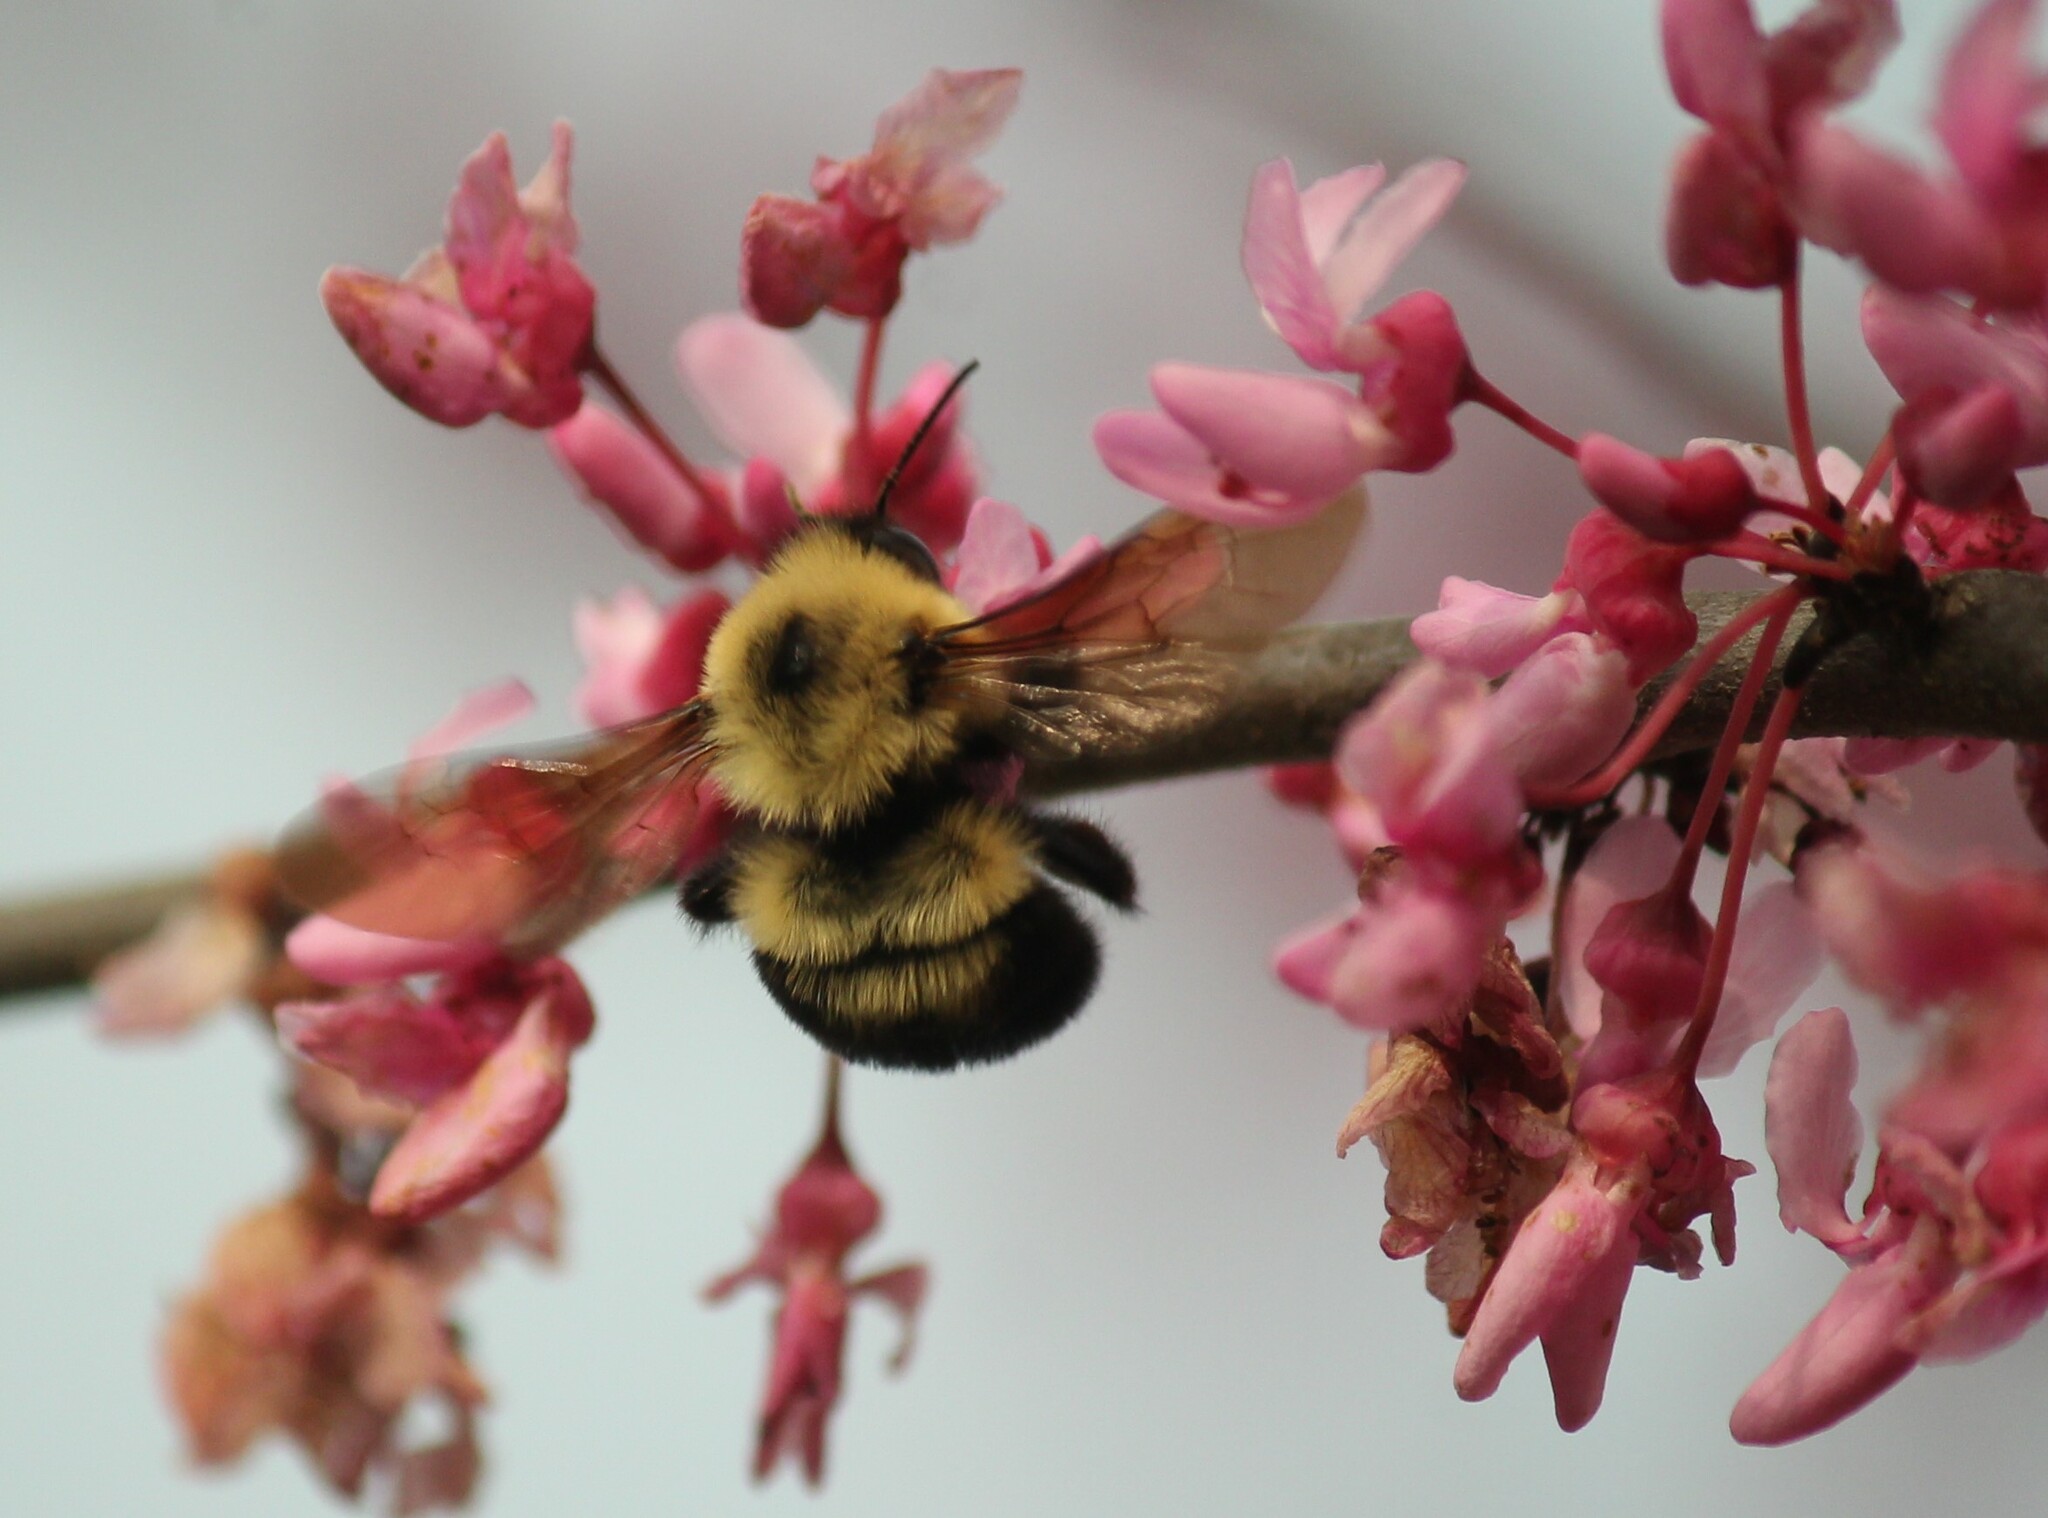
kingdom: Animalia
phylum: Arthropoda
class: Insecta
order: Hymenoptera
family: Apidae
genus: Bombus
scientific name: Bombus bimaculatus
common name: Two-spotted bumble bee
